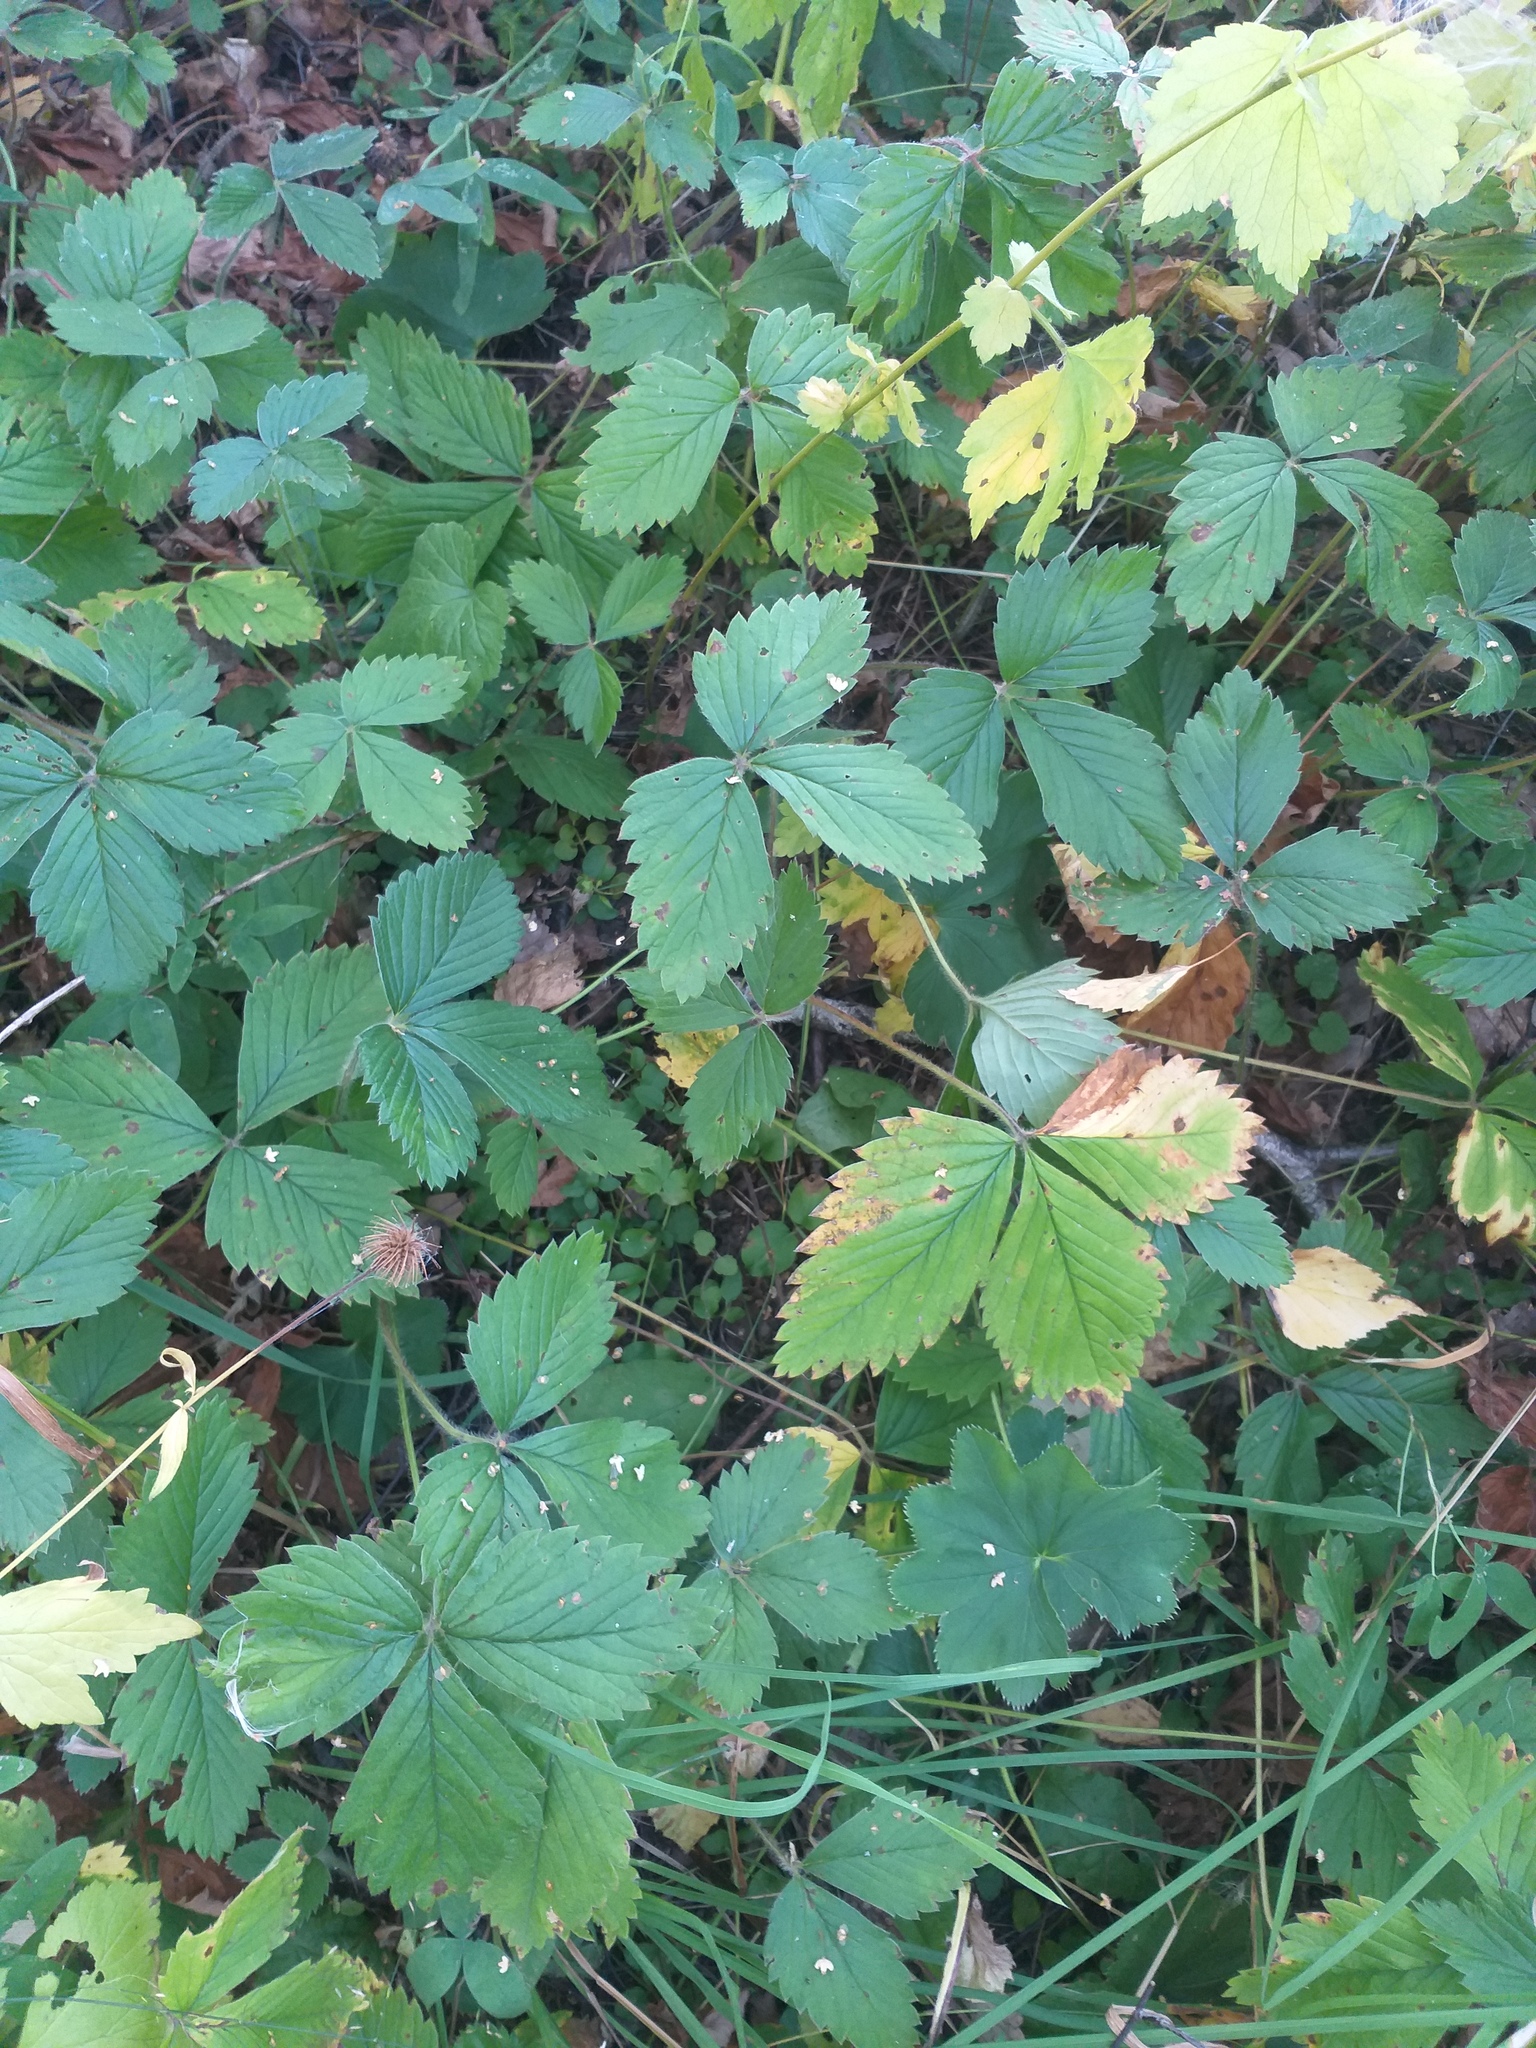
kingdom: Plantae
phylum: Tracheophyta
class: Magnoliopsida
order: Rosales
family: Rosaceae
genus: Fragaria
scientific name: Fragaria moschata
